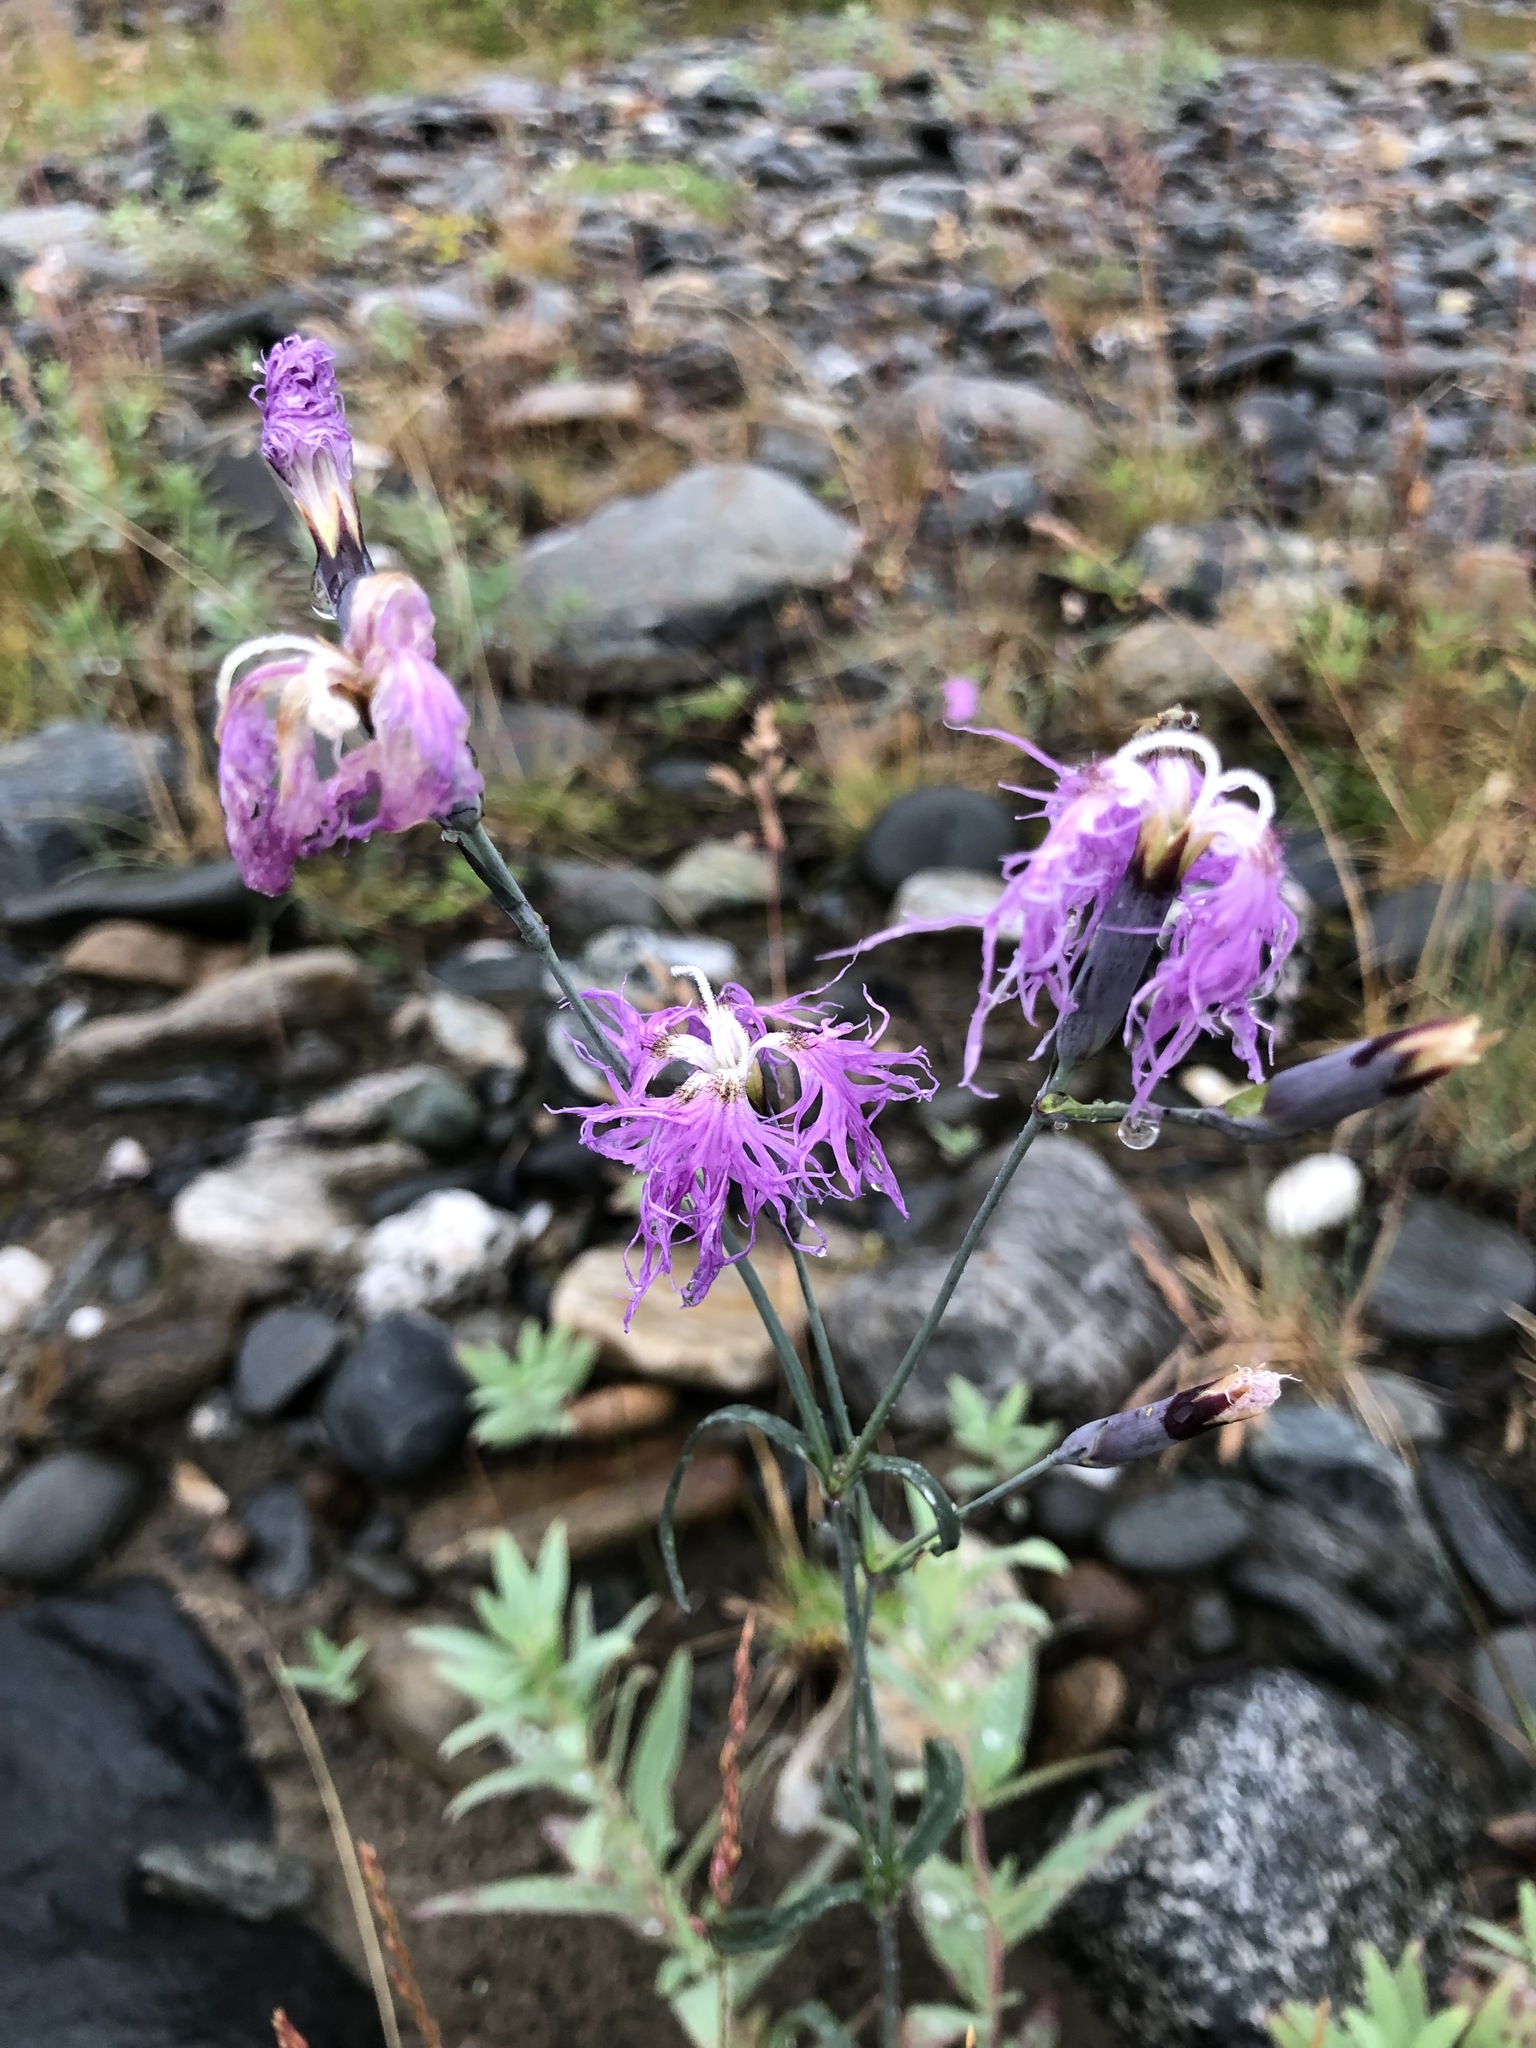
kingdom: Plantae
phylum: Tracheophyta
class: Magnoliopsida
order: Caryophyllales
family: Caryophyllaceae
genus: Dianthus
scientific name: Dianthus superbus
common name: Fringed pink
